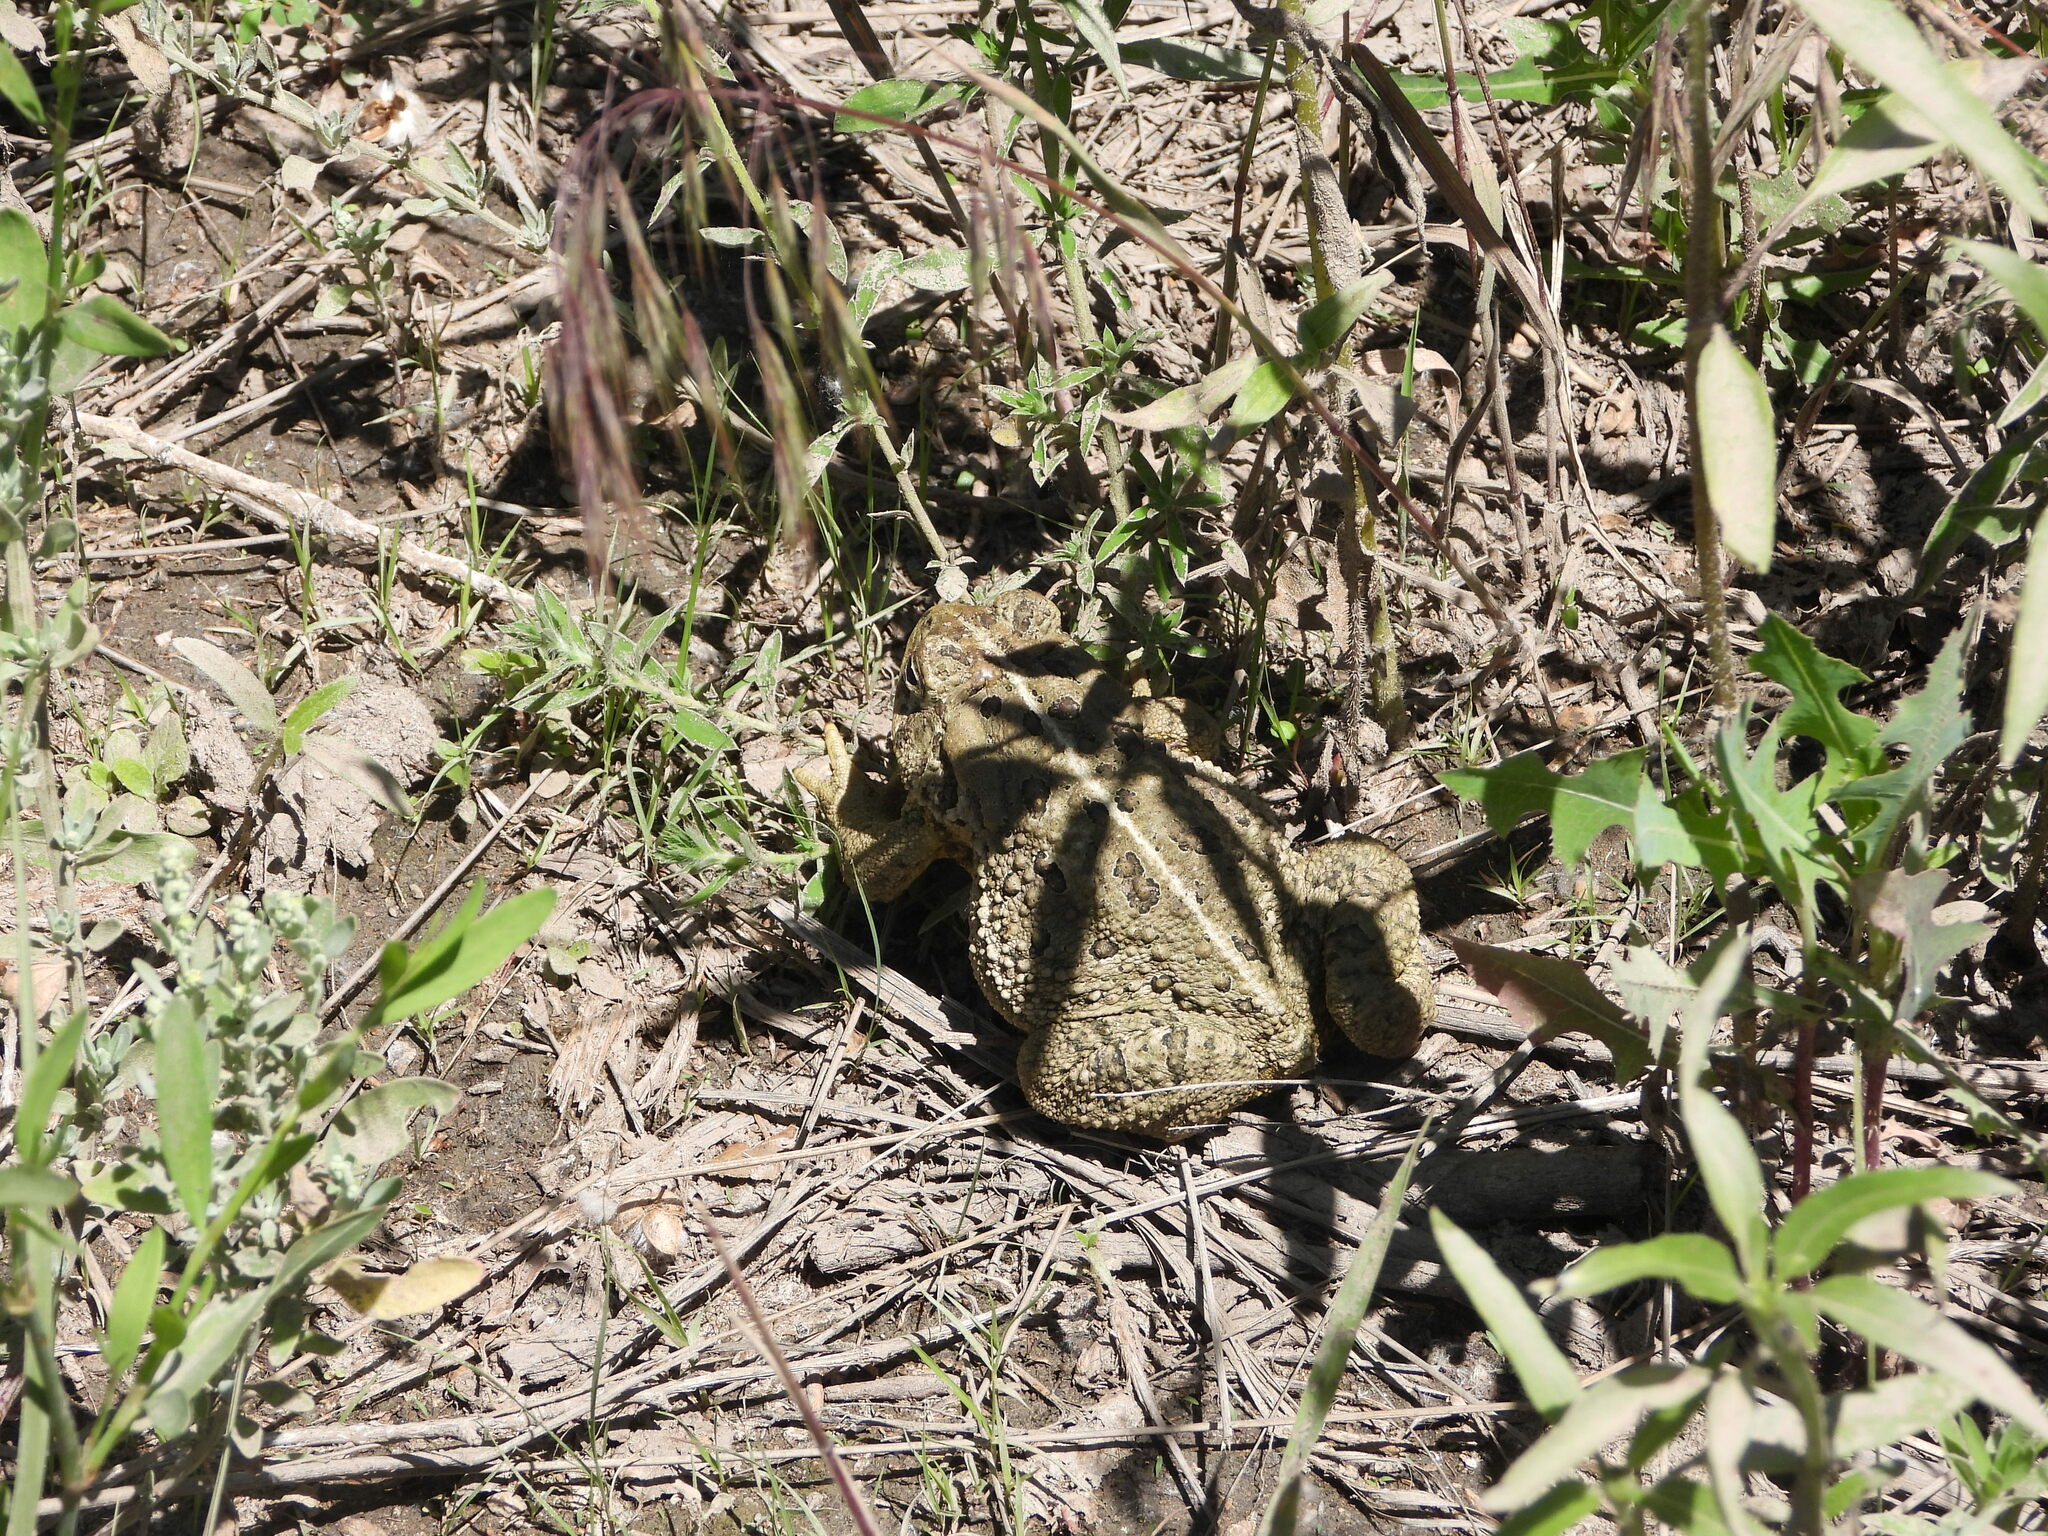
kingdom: Animalia
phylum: Chordata
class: Amphibia
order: Anura
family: Bufonidae
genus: Anaxyrus
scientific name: Anaxyrus woodhousii
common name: Woodhouse's toad
